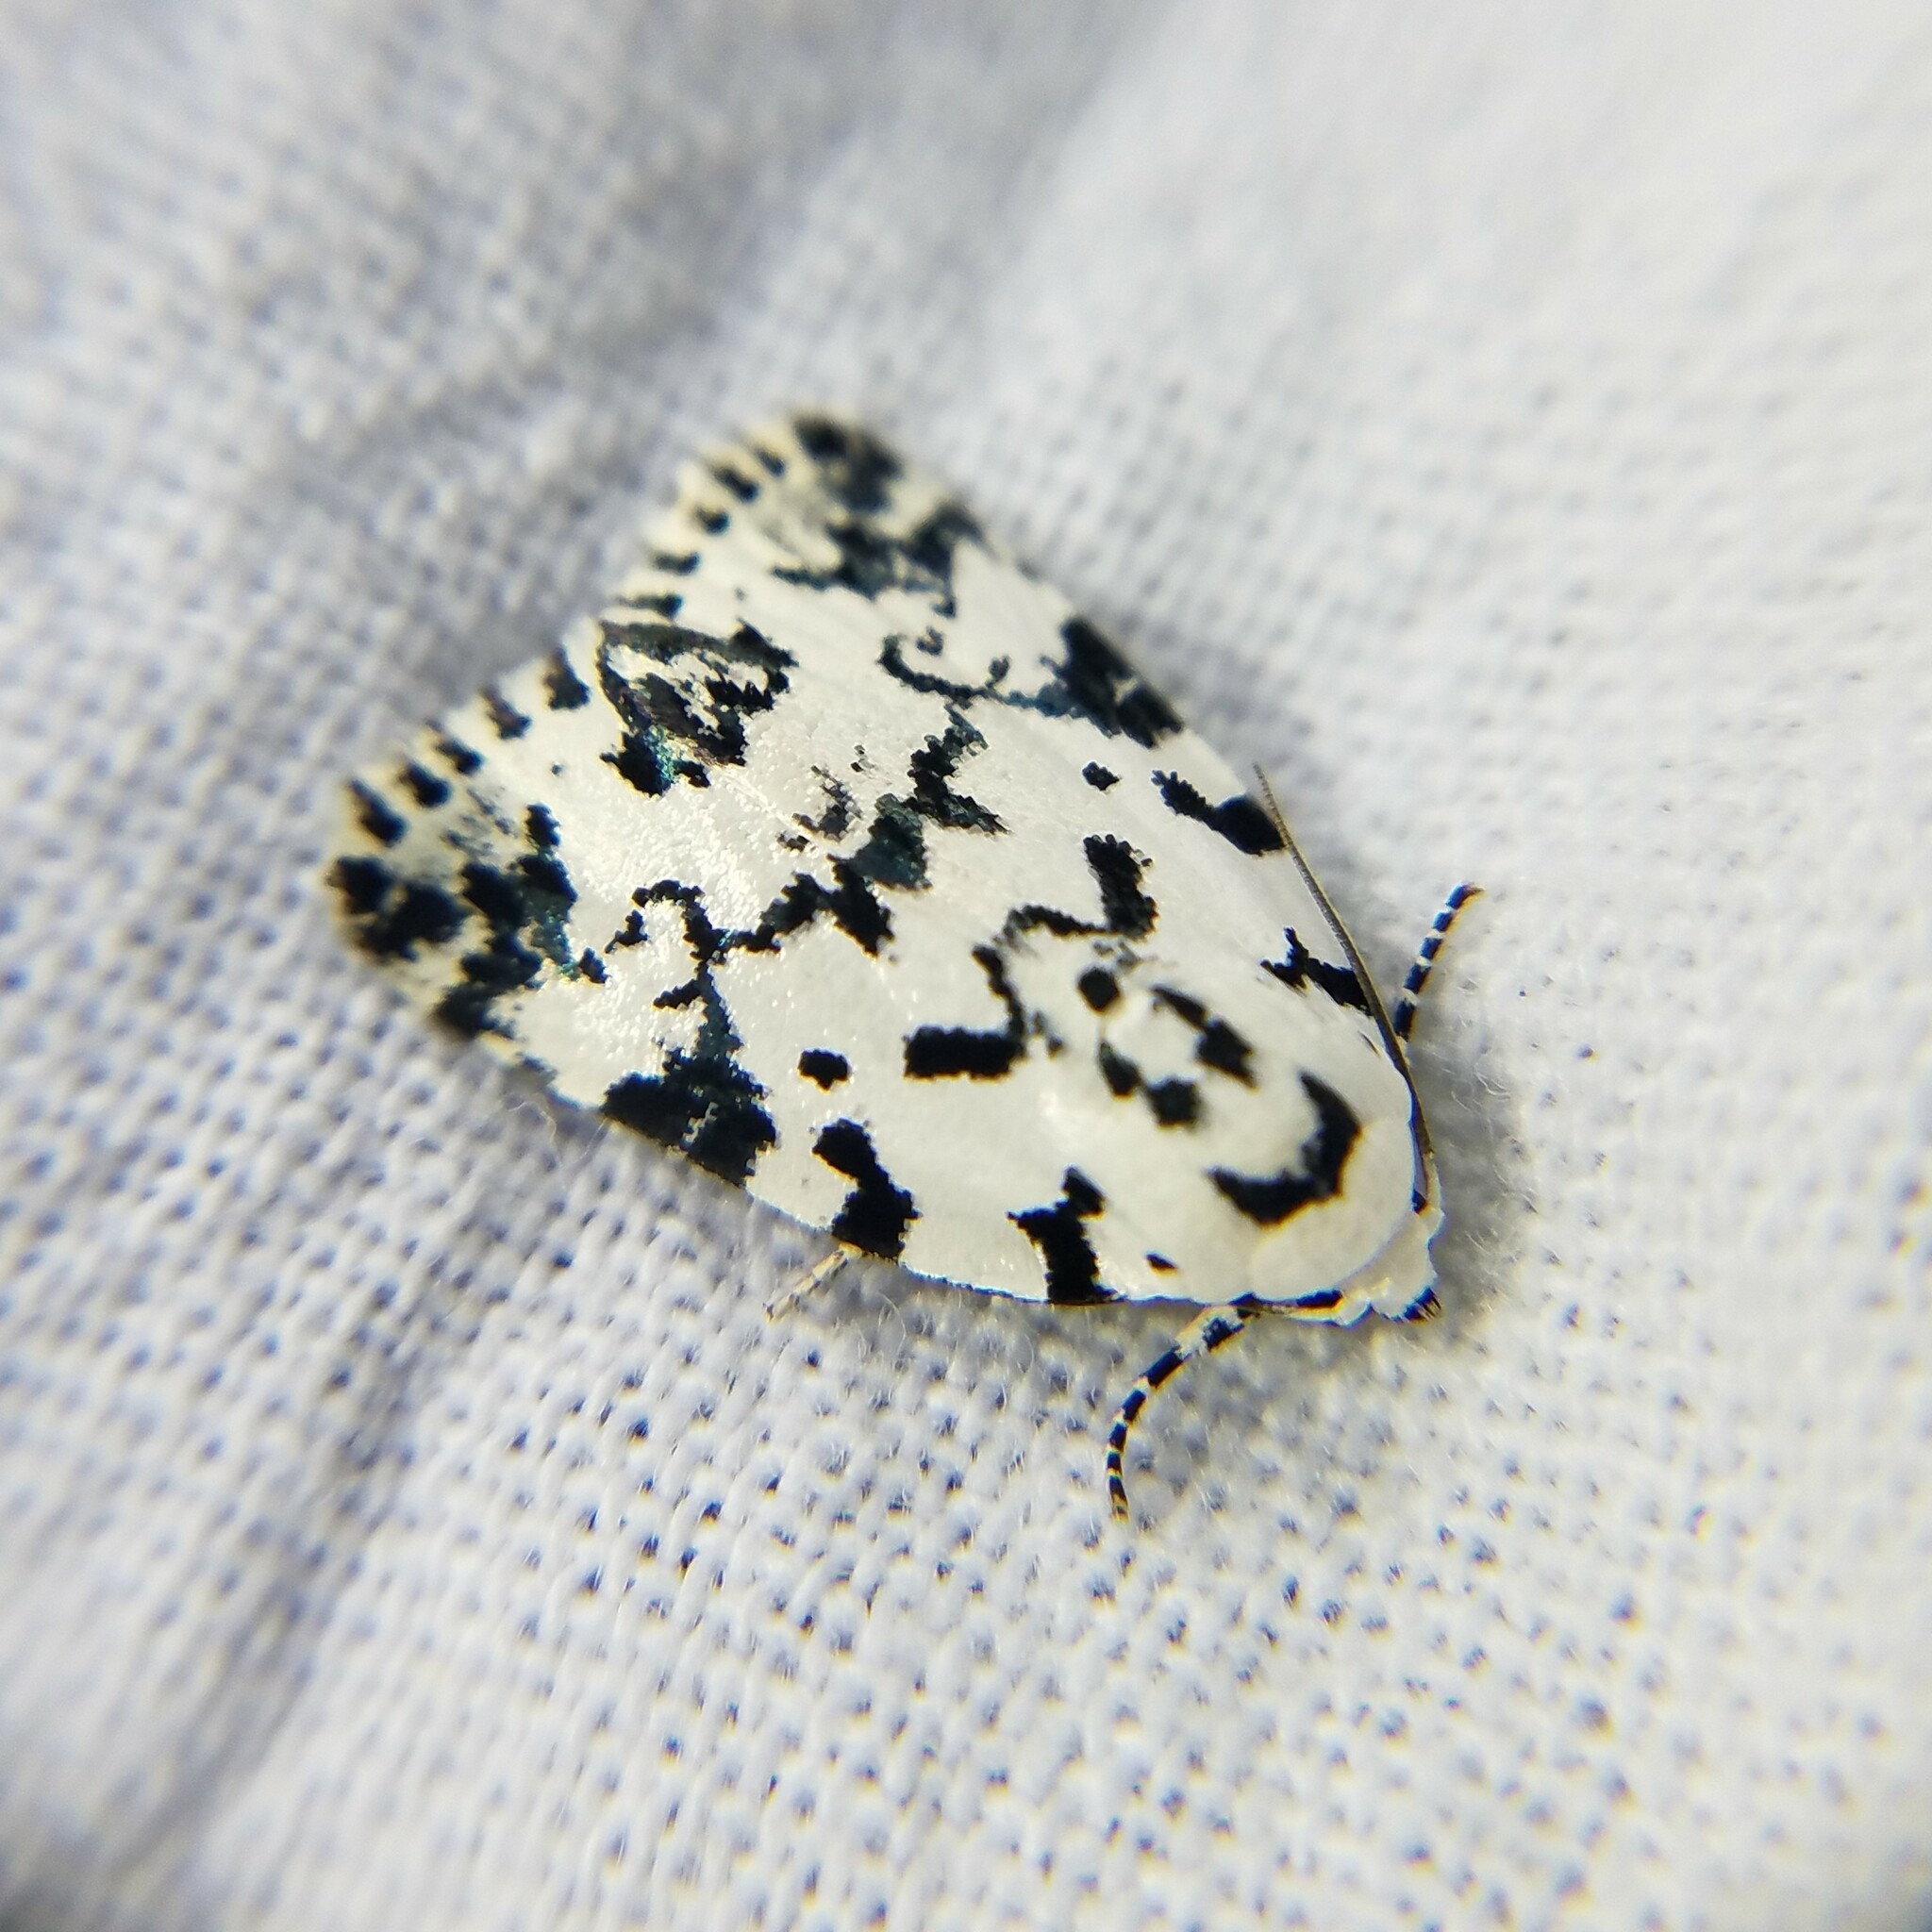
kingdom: Animalia
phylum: Arthropoda
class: Insecta
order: Lepidoptera
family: Noctuidae
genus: Polygrammate
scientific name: Polygrammate hebraeicum
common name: Hebrew moth
